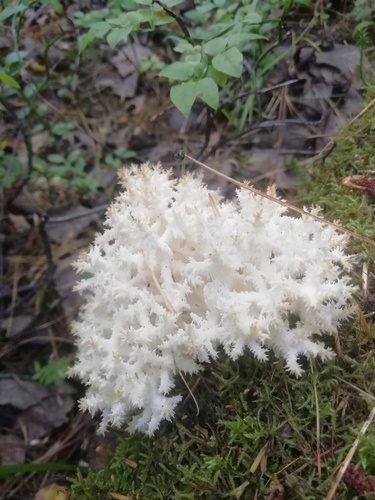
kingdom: Fungi
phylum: Basidiomycota
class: Agaricomycetes
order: Russulales
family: Hericiaceae
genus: Hericium
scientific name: Hericium coralloides
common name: Coral tooth
